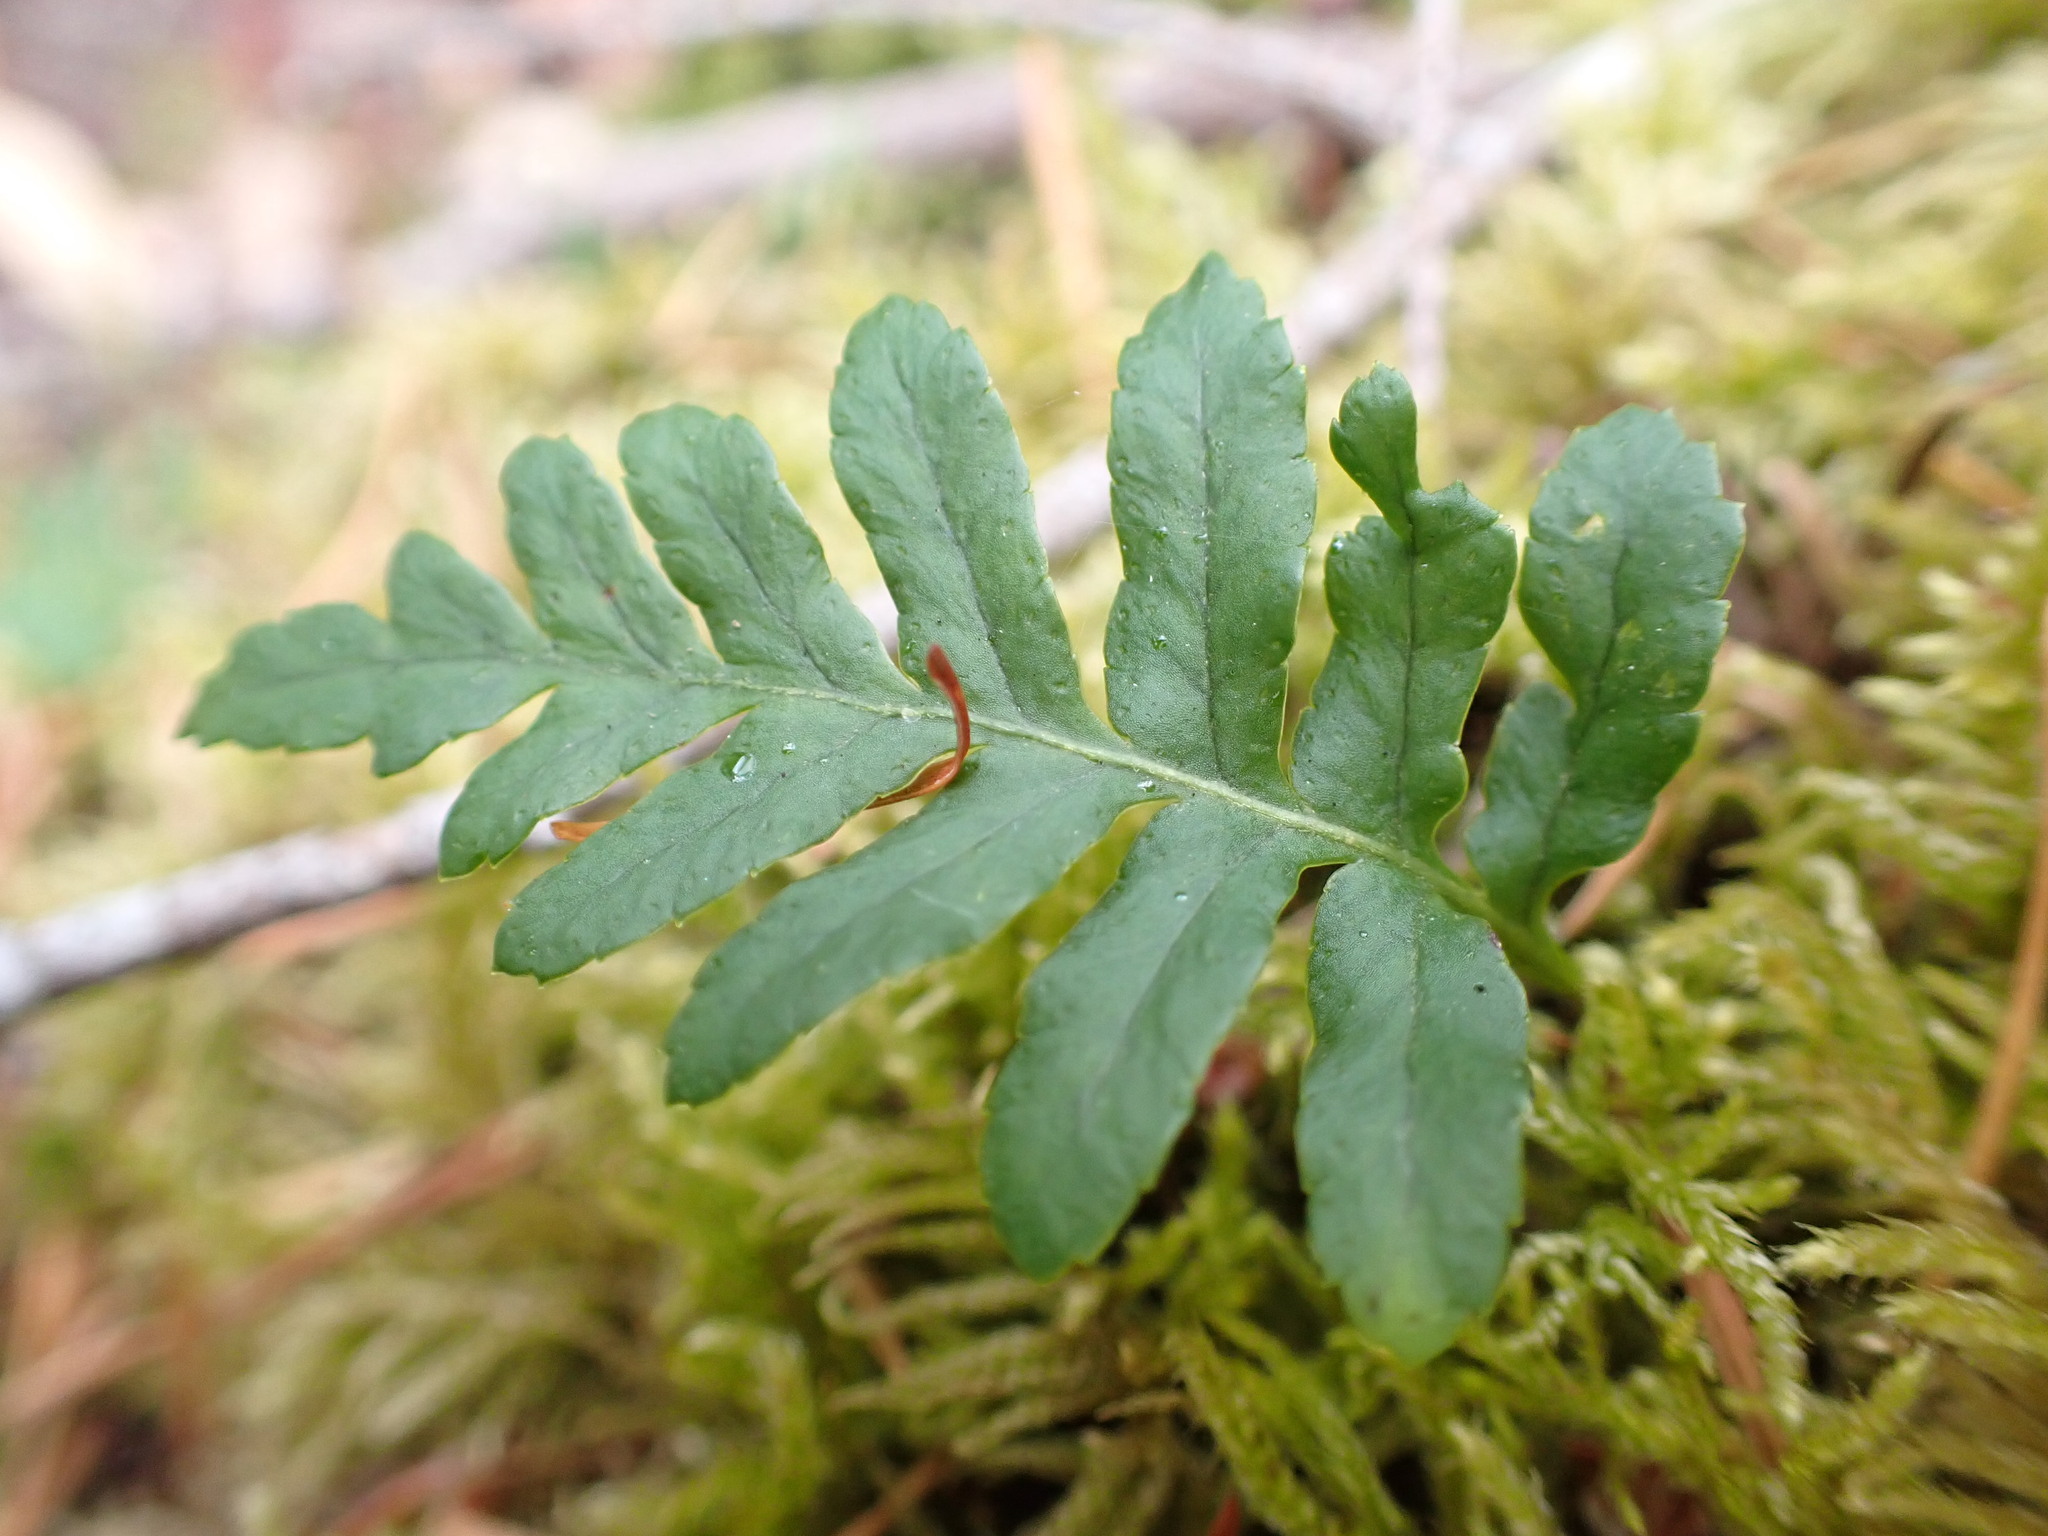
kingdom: Plantae
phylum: Tracheophyta
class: Polypodiopsida
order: Polypodiales
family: Polypodiaceae
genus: Polypodium
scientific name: Polypodium glycyrrhiza
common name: Licorice fern
